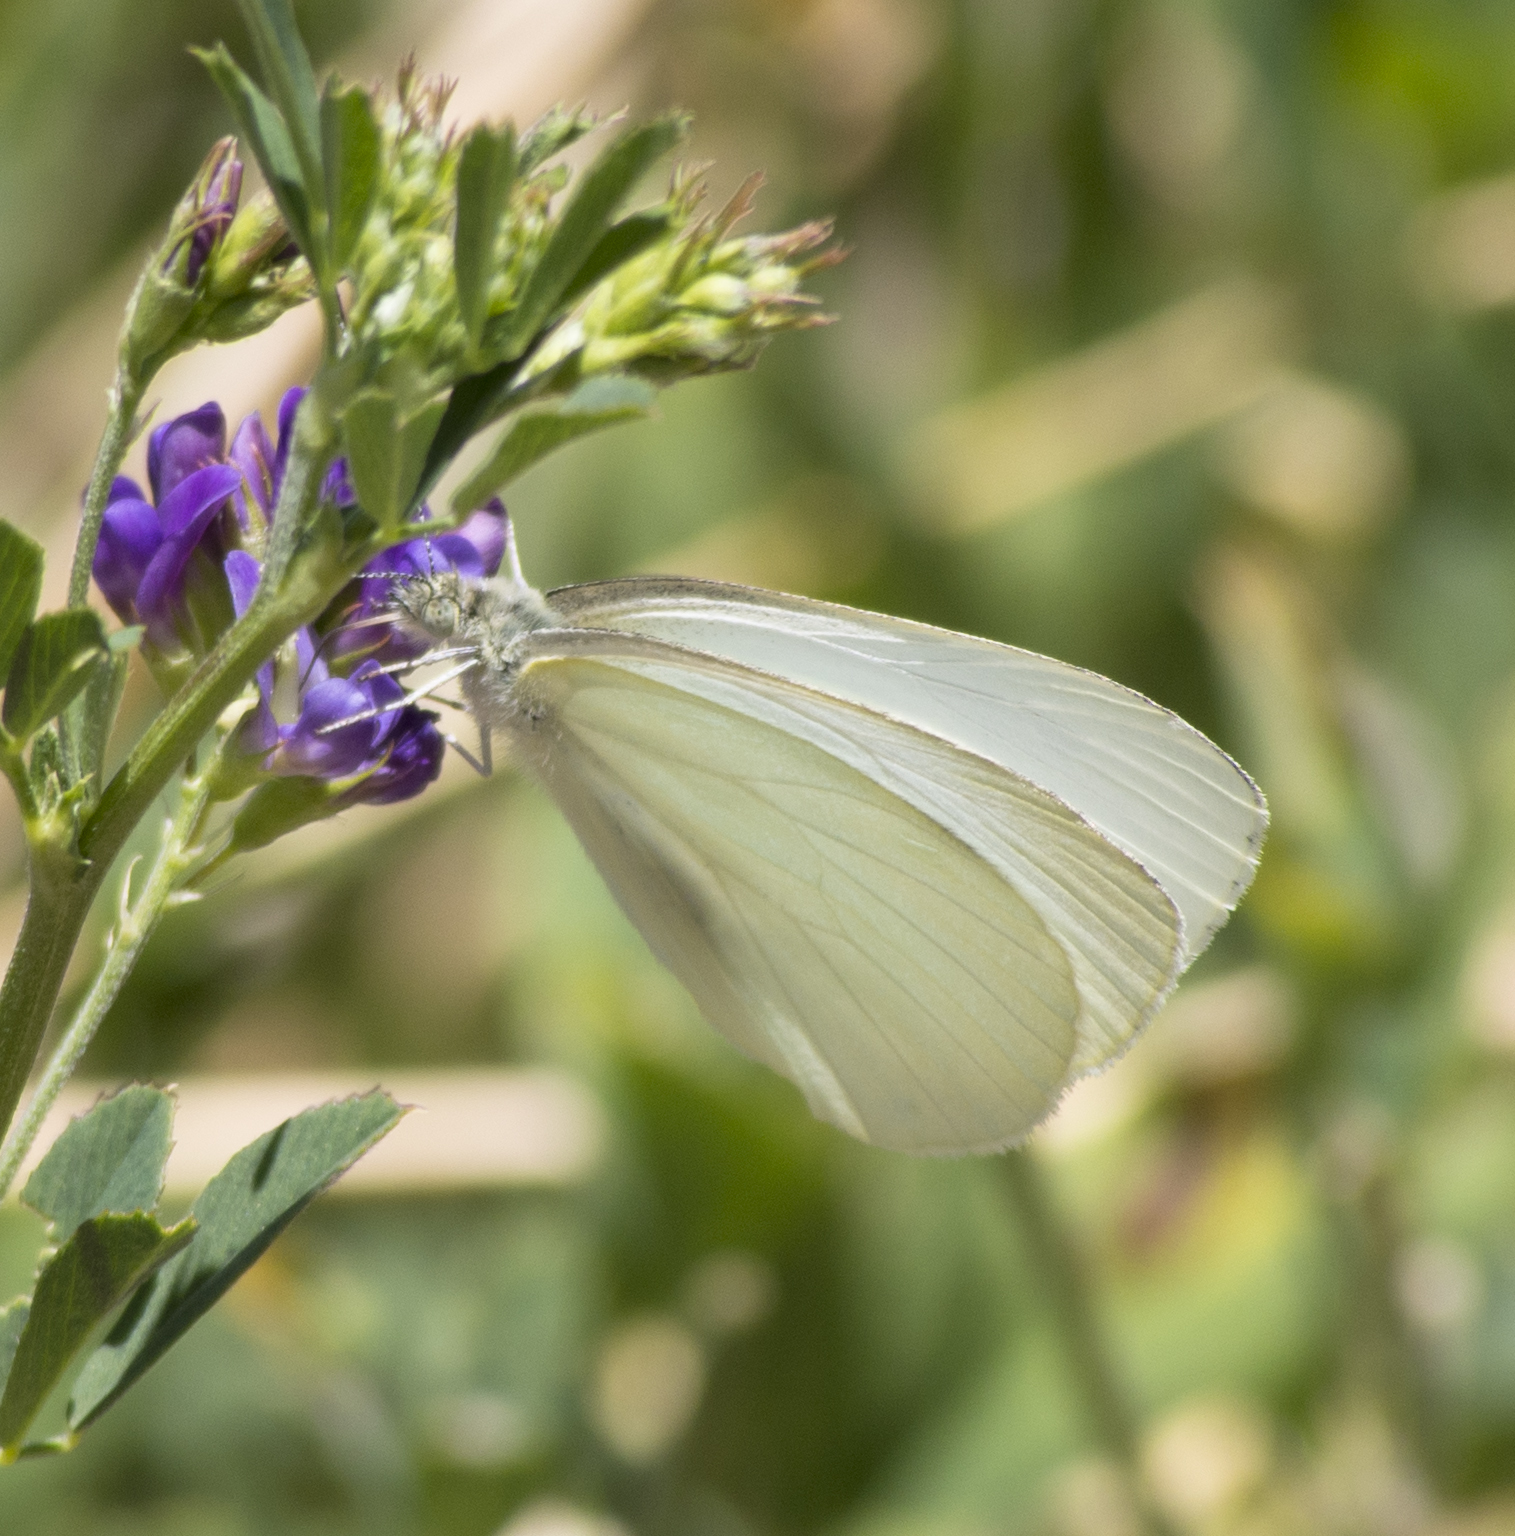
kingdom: Animalia
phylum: Arthropoda
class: Insecta
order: Lepidoptera
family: Pieridae
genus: Pieris
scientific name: Pieris marginalis
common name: Margined white
